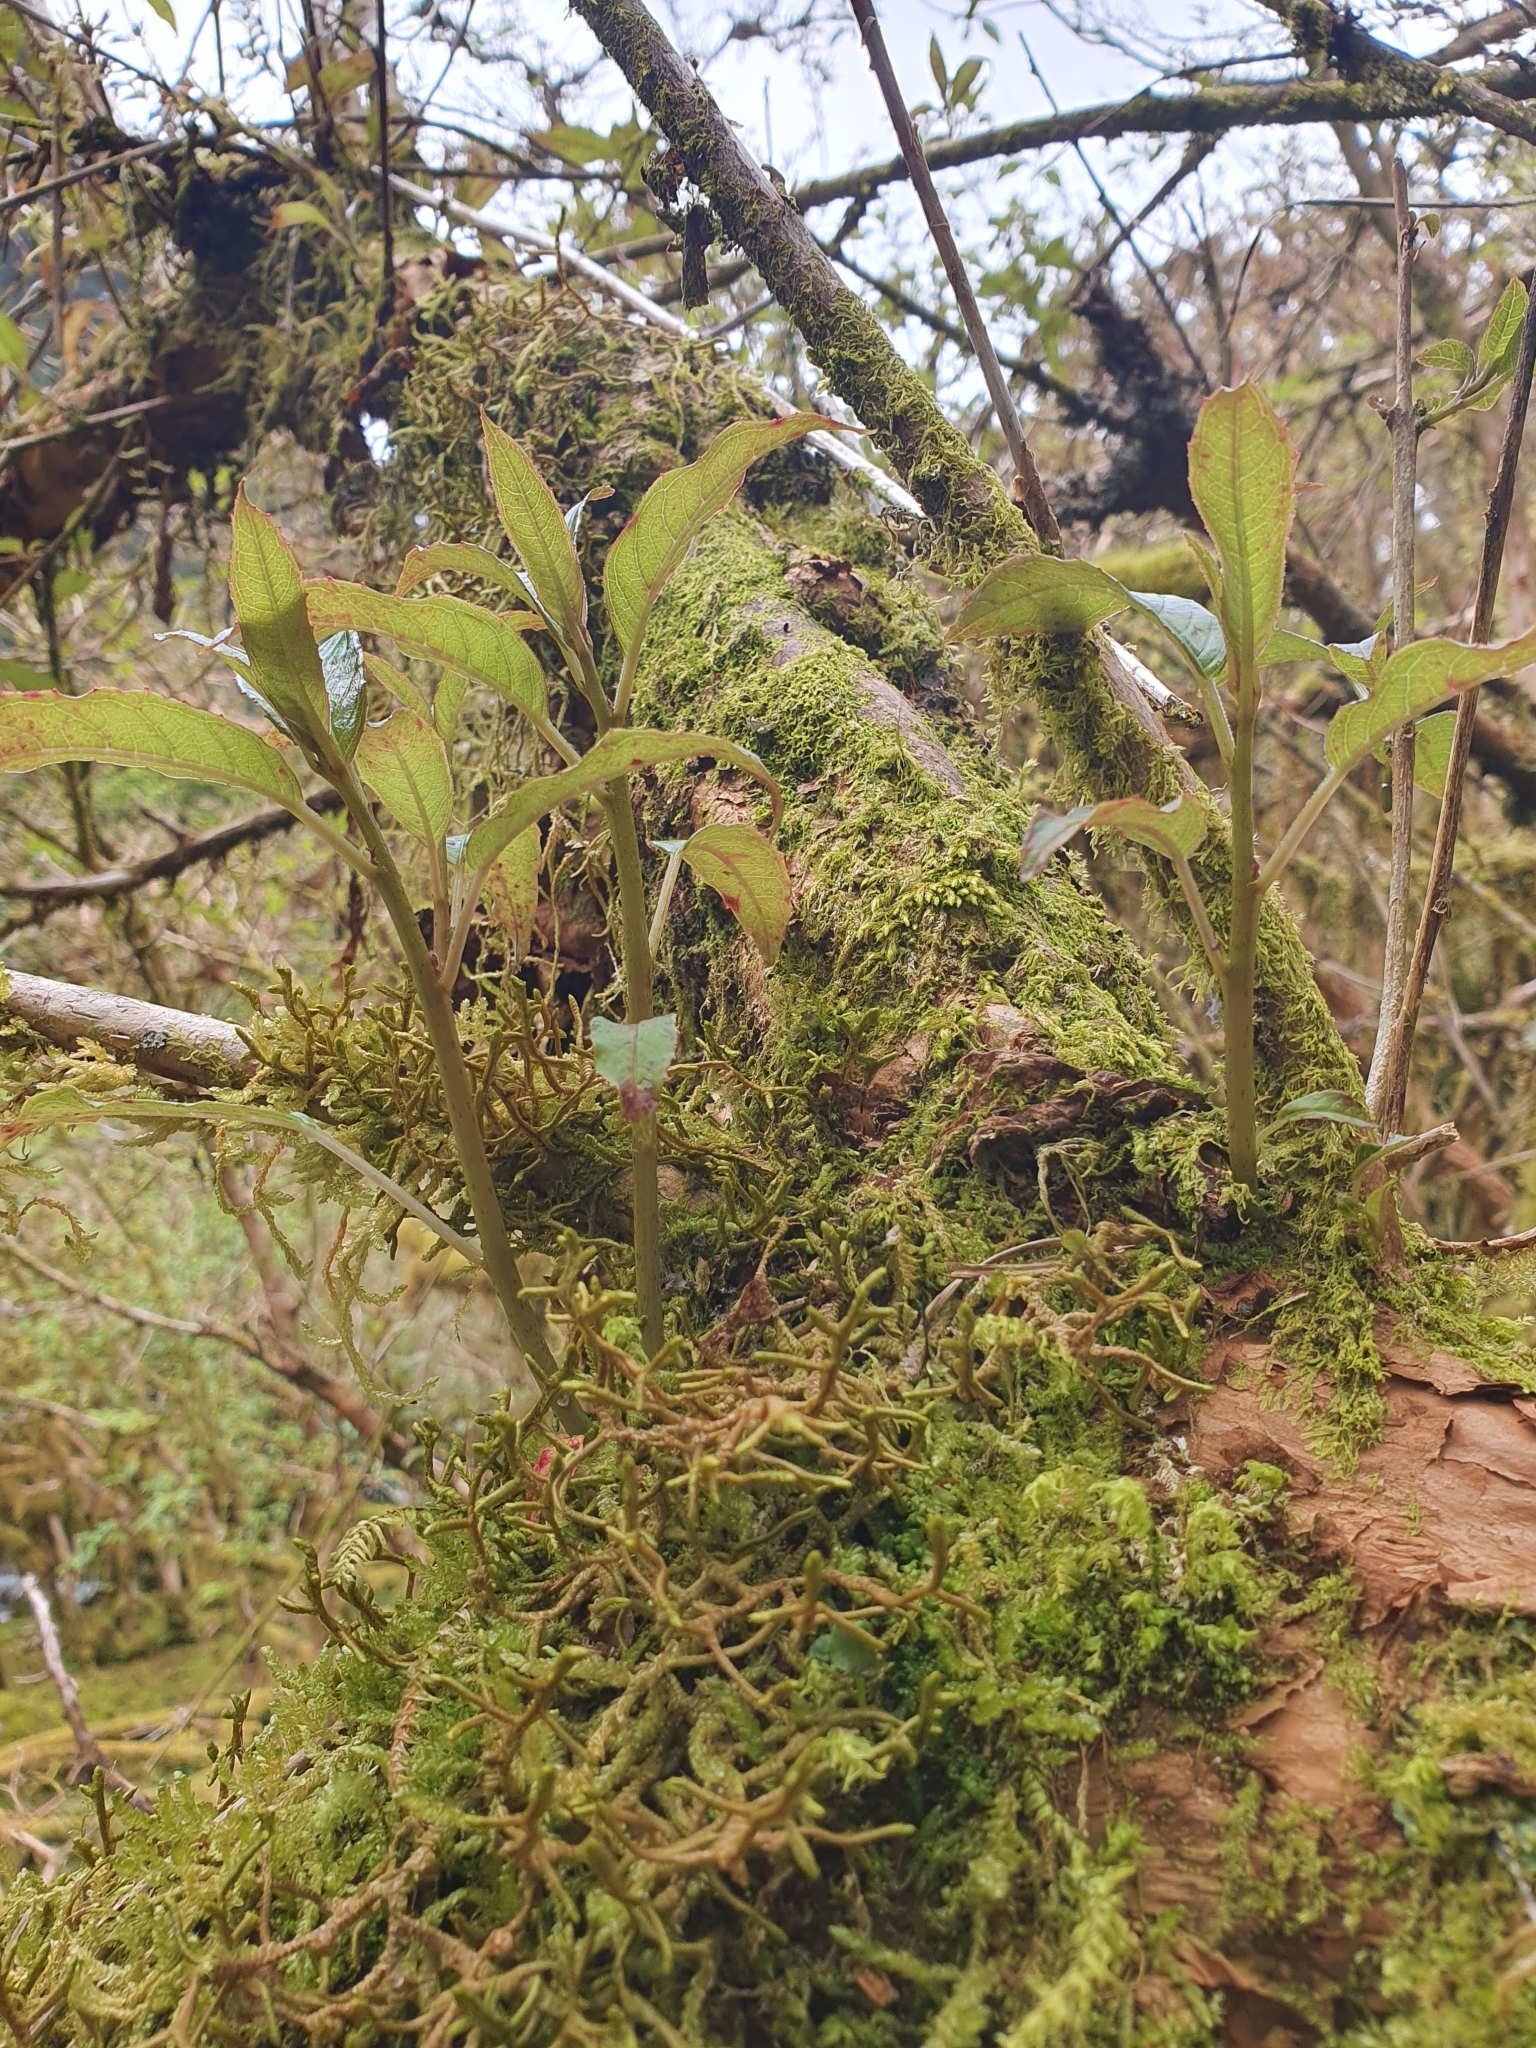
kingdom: Plantae
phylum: Tracheophyta
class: Magnoliopsida
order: Myrtales
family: Onagraceae
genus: Fuchsia
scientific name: Fuchsia excorticata
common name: Tree fuchsia
